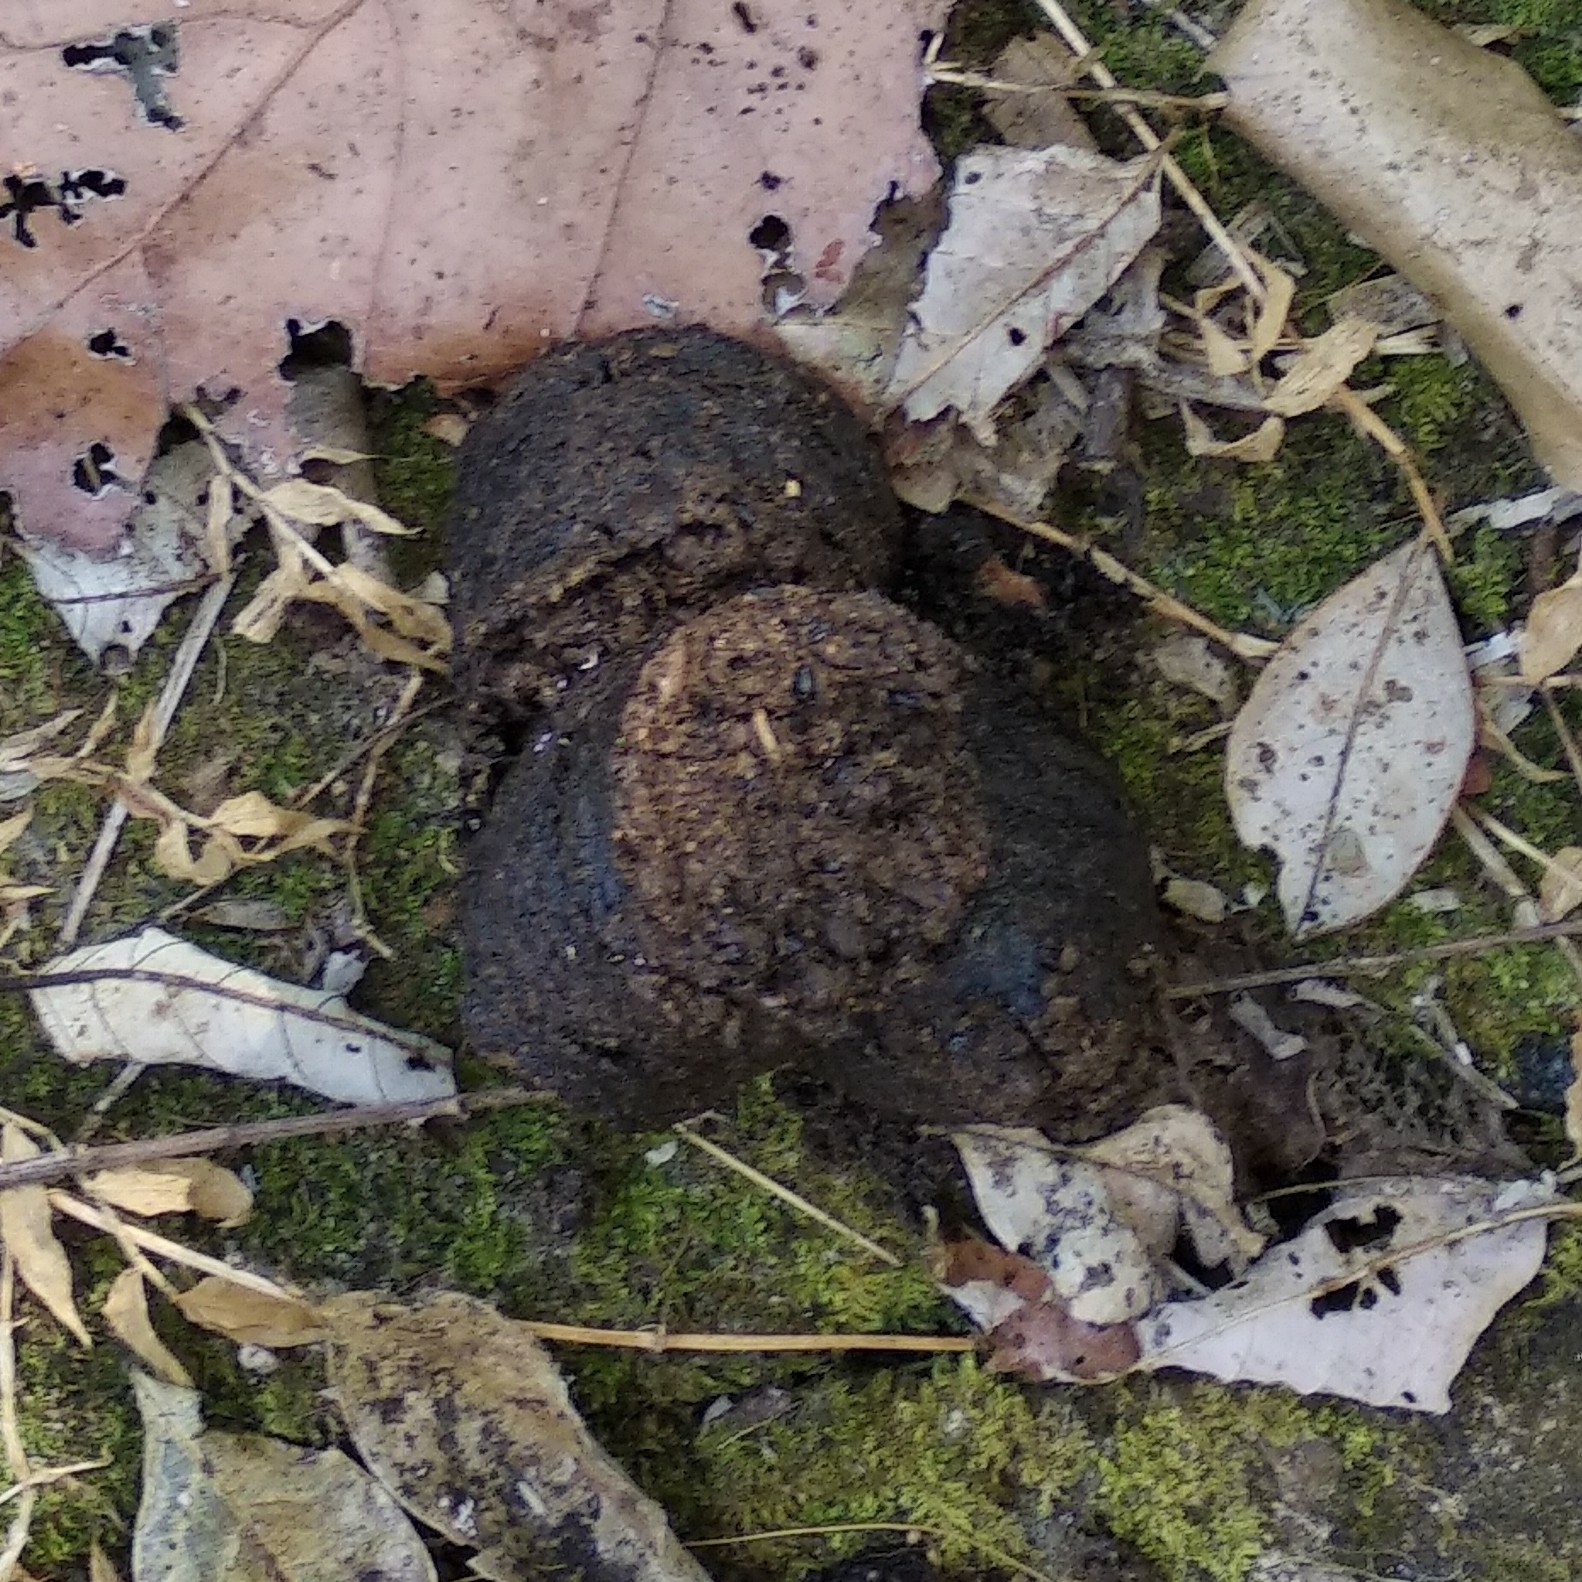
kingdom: Animalia
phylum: Chordata
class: Mammalia
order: Carnivora
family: Ursidae
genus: Melursus
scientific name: Melursus ursinus
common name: Sloth bear
